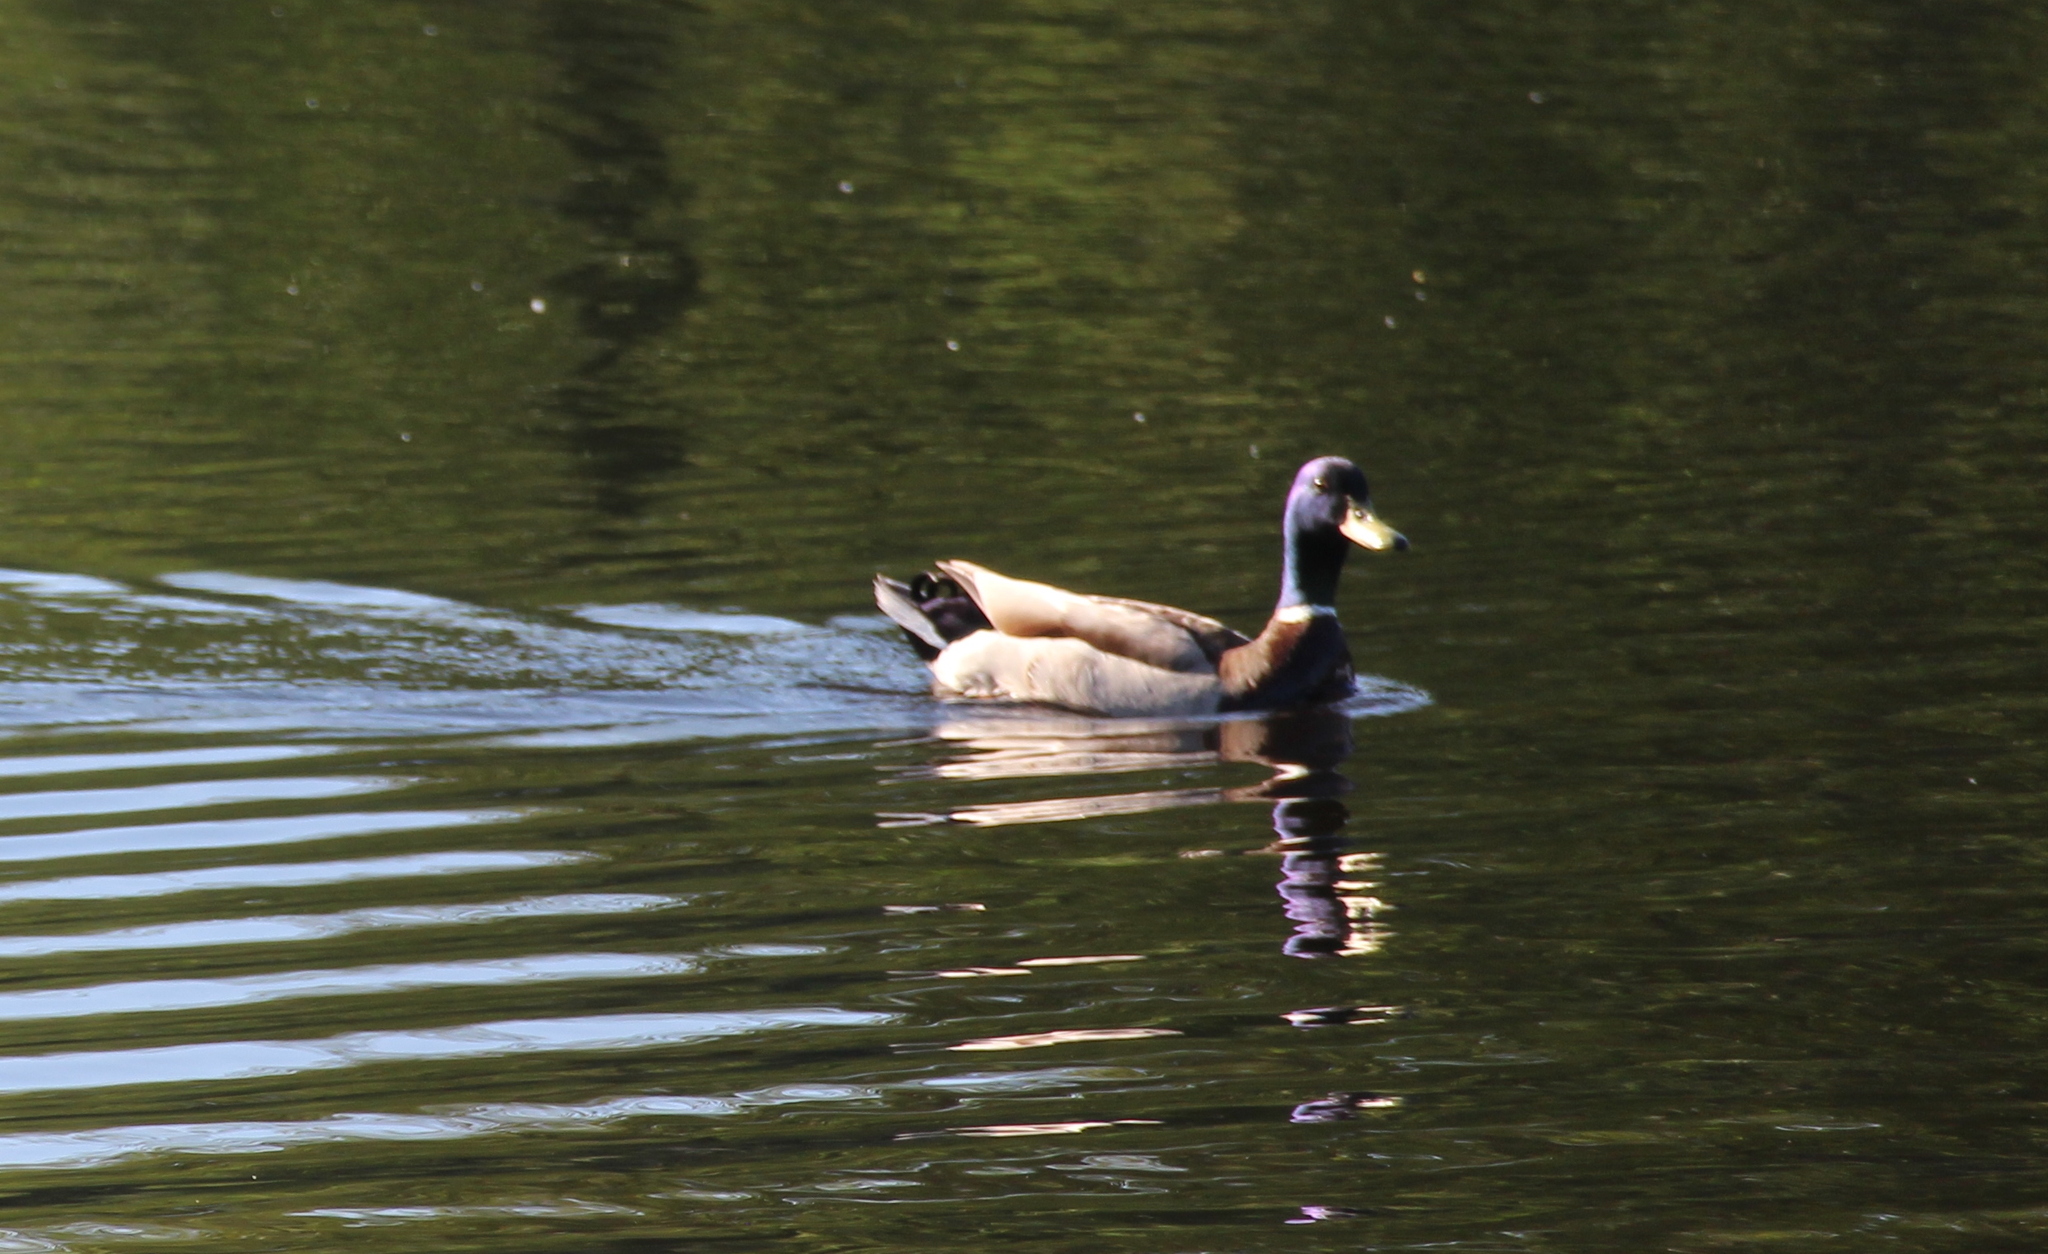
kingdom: Animalia
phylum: Chordata
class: Aves
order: Anseriformes
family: Anatidae
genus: Anas
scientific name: Anas platyrhynchos
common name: Mallard
